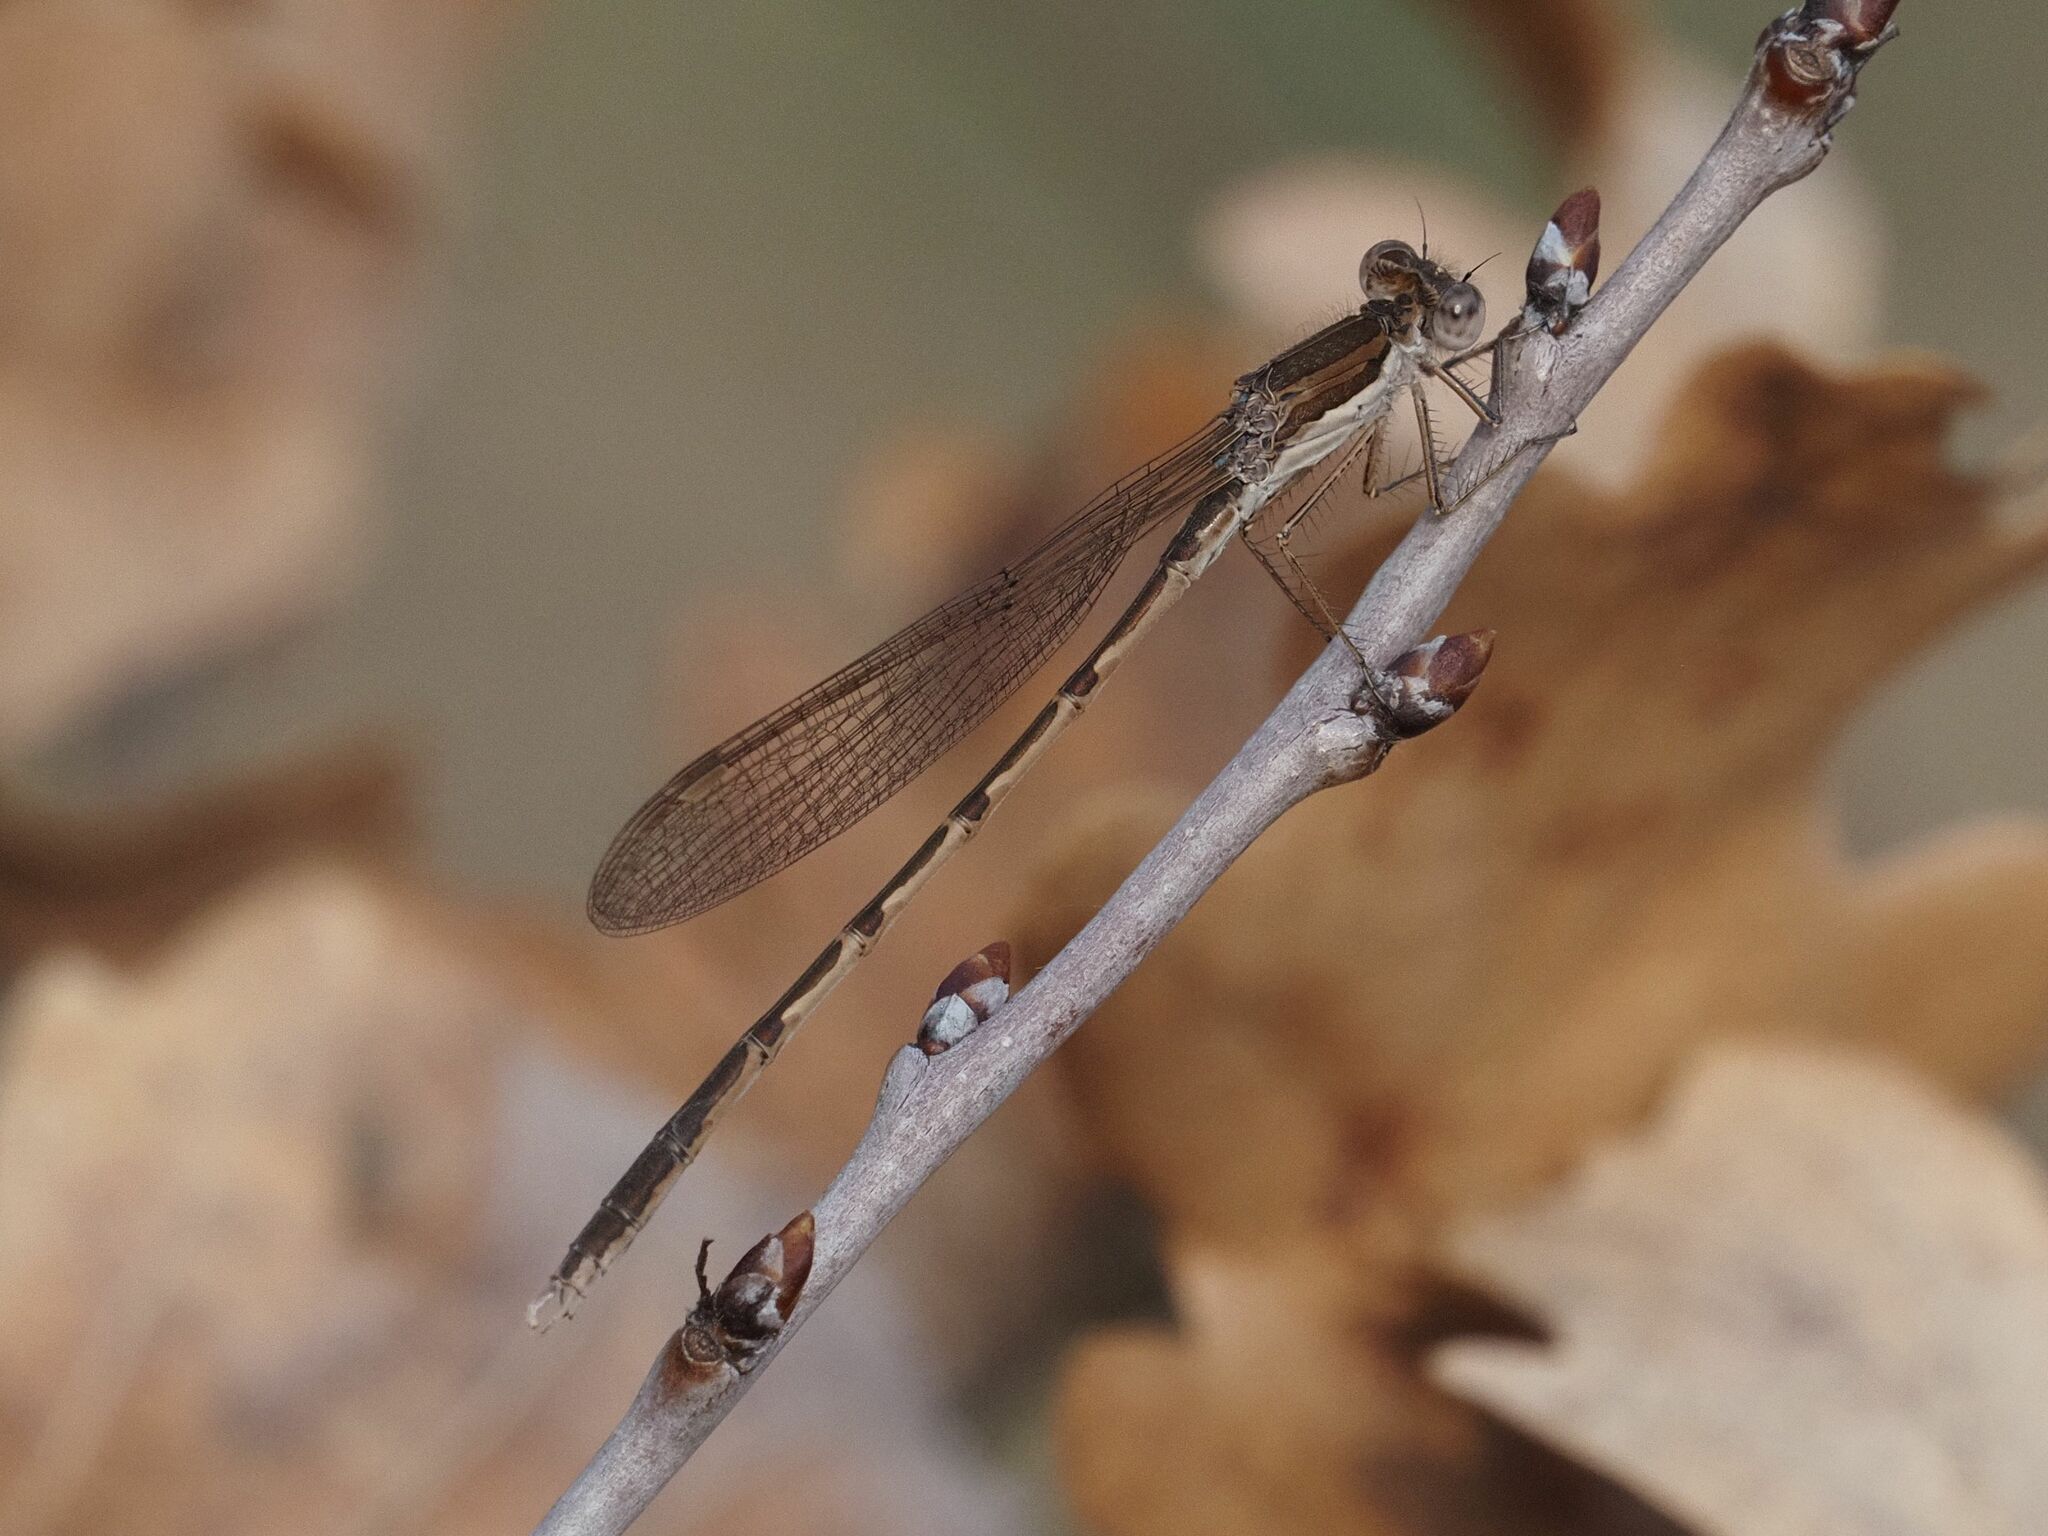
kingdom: Animalia
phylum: Arthropoda
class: Insecta
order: Odonata
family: Lestidae
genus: Sympecma
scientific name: Sympecma fusca
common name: Common winter damsel
